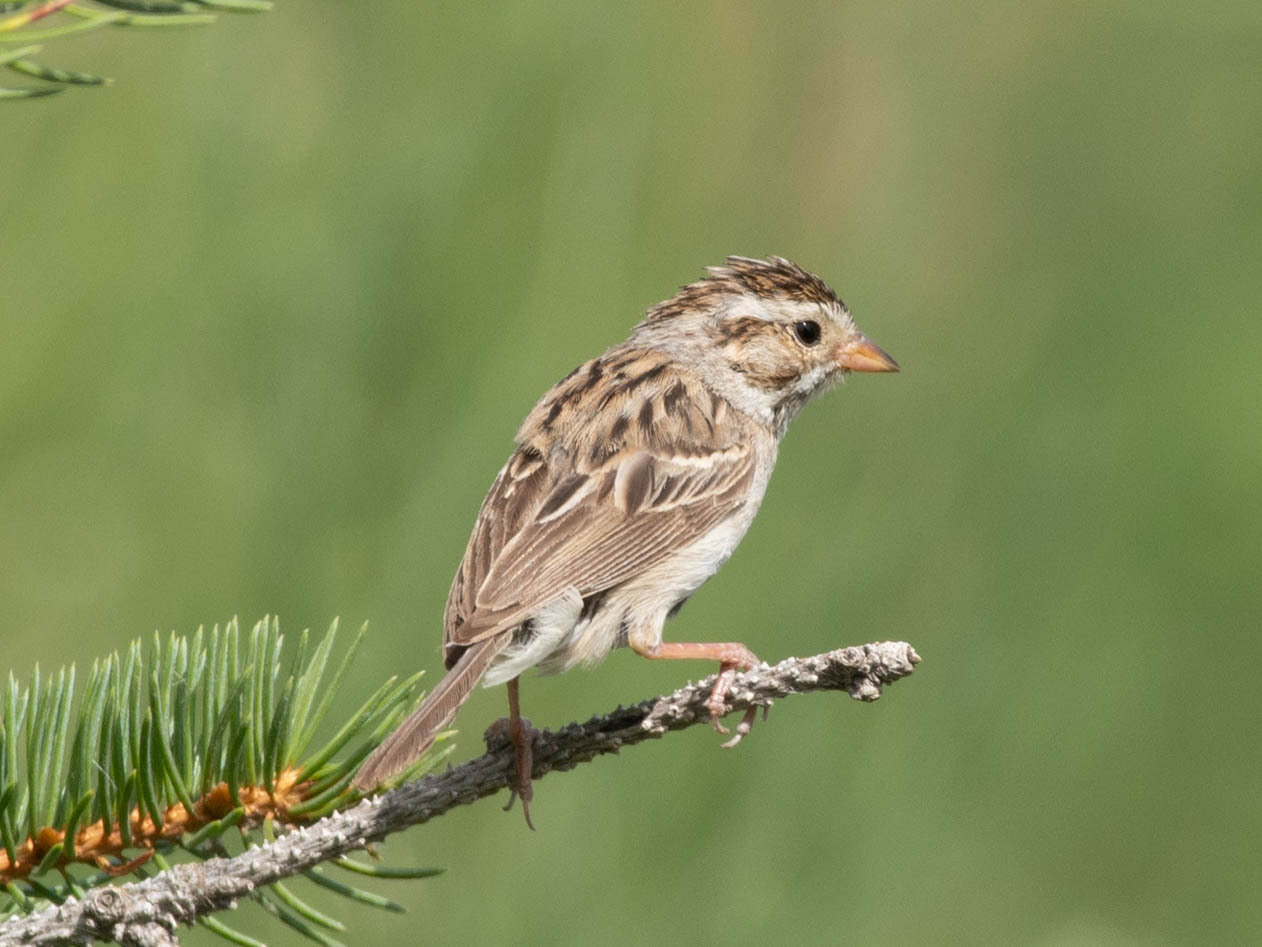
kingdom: Animalia
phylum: Chordata
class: Aves
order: Passeriformes
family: Passerellidae
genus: Spizella
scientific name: Spizella pallida
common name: Clay-colored sparrow
